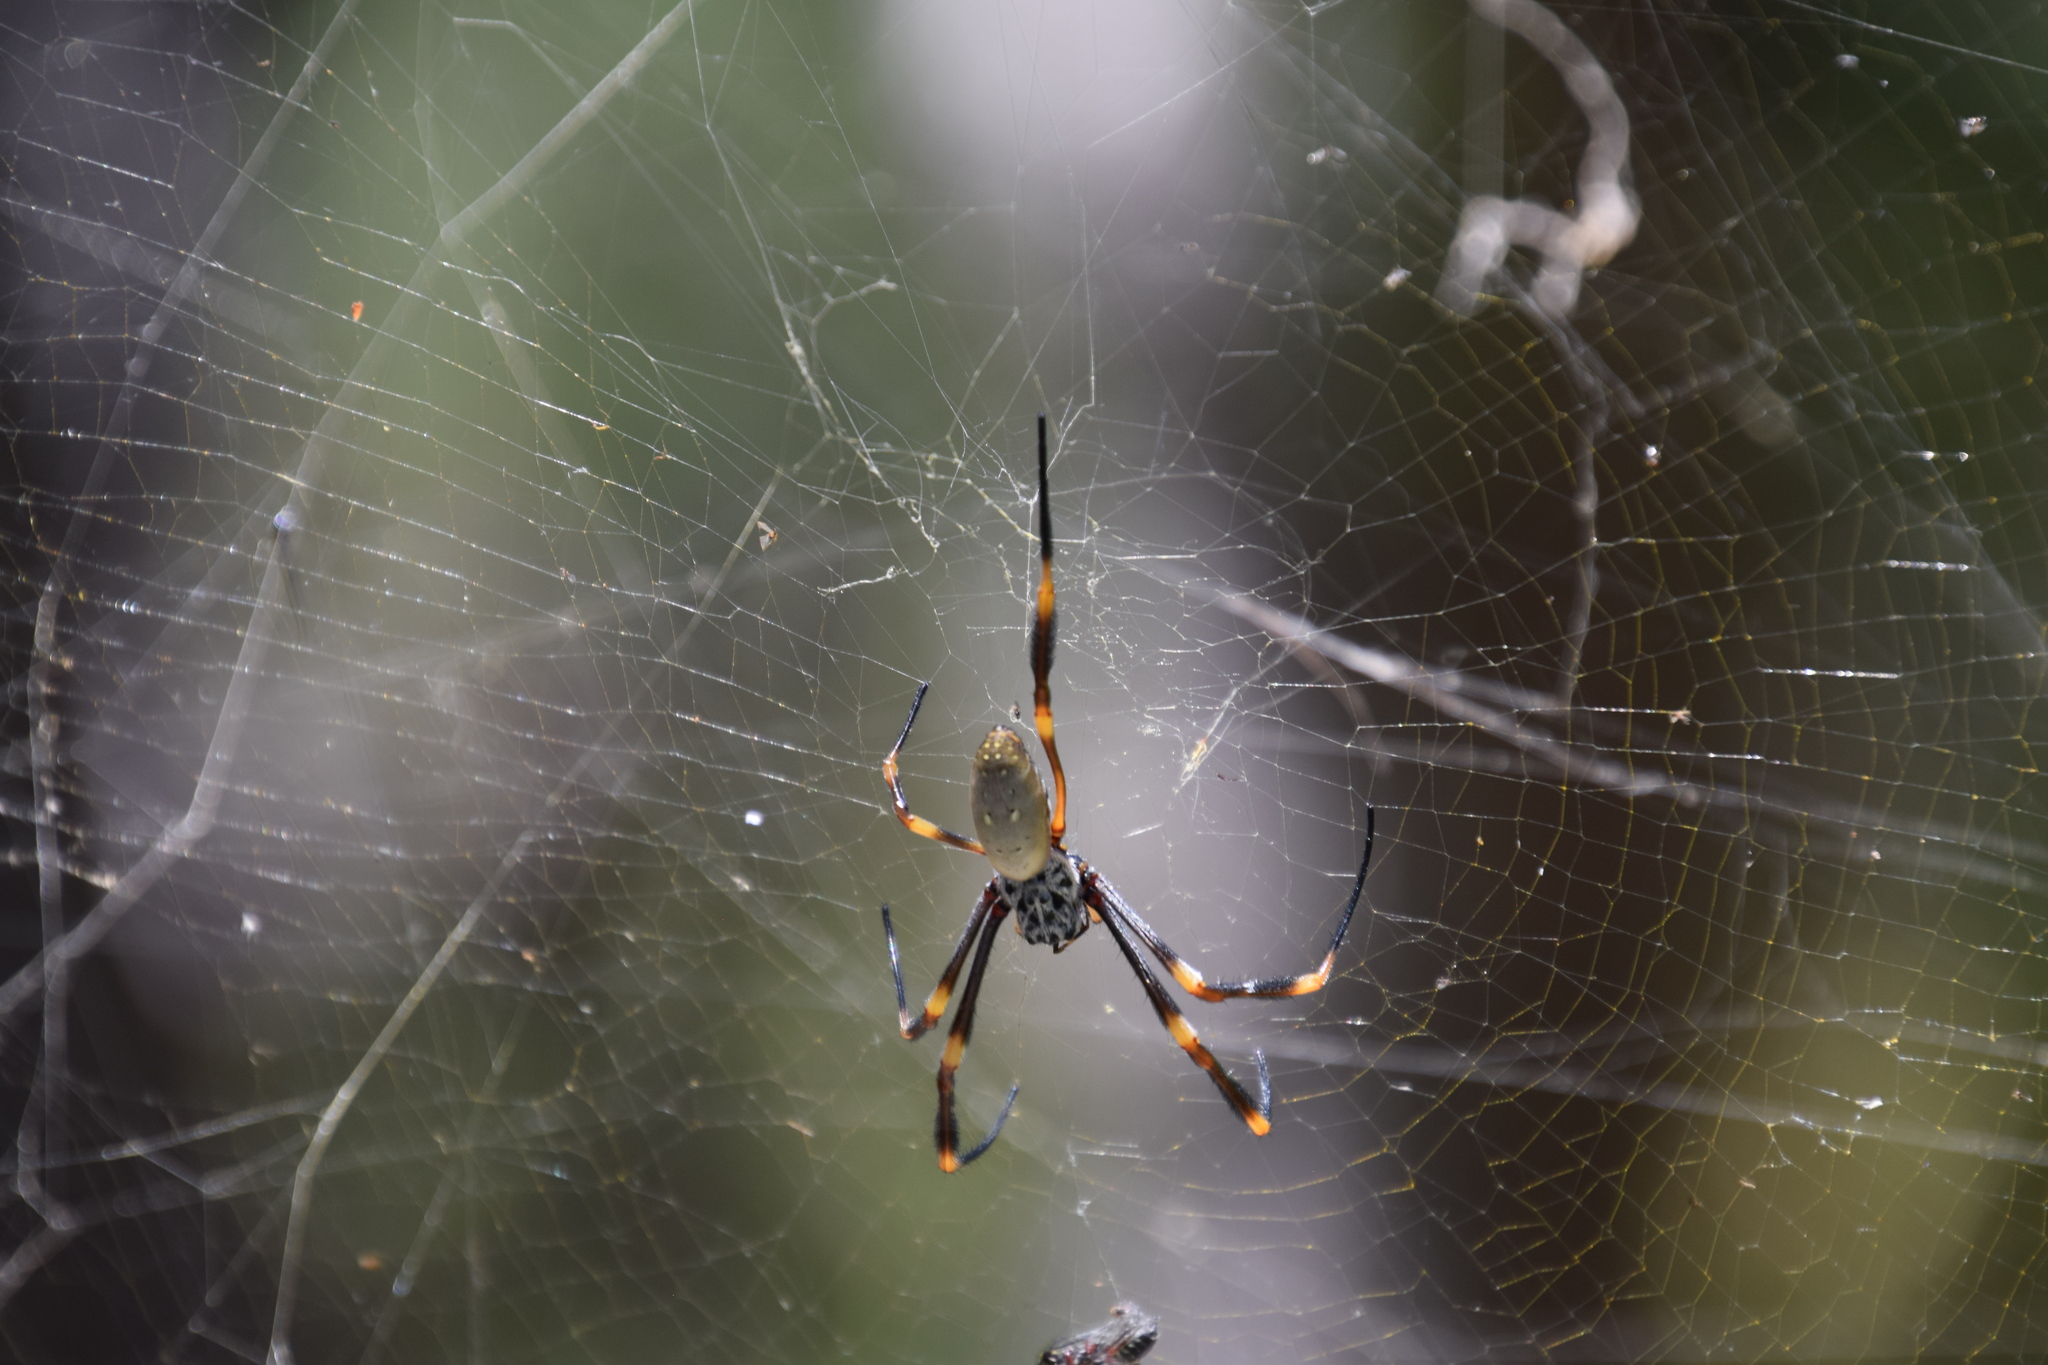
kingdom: Animalia
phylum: Arthropoda
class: Arachnida
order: Araneae
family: Araneidae
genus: Trichonephila
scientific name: Trichonephila plumipes
